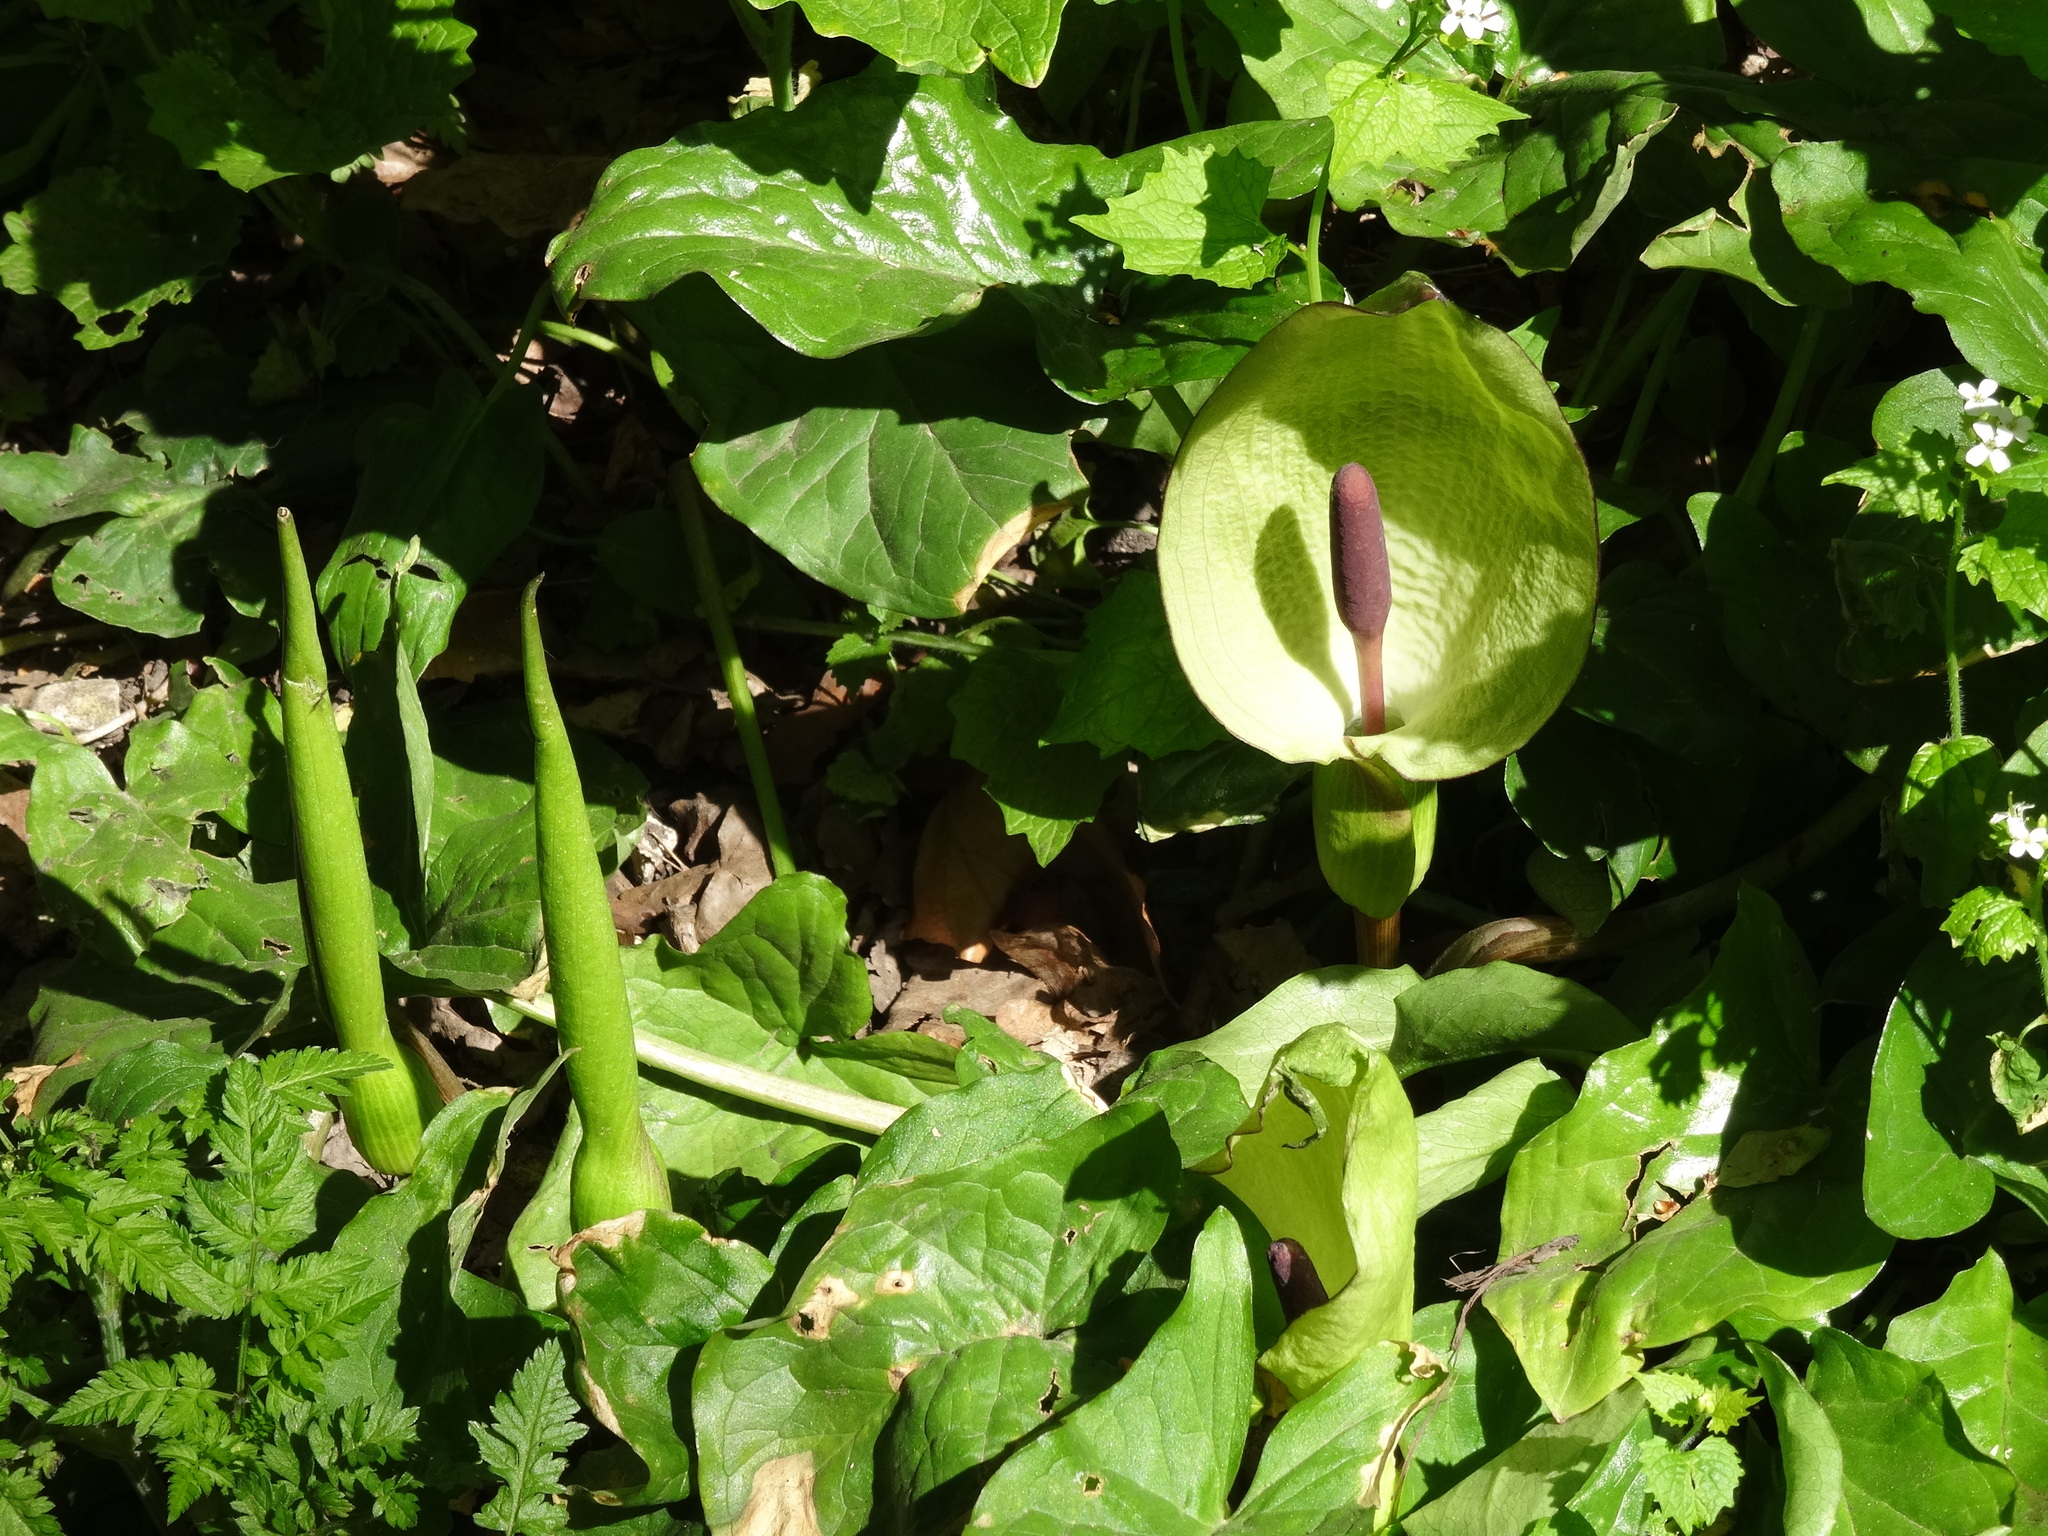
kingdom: Plantae
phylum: Tracheophyta
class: Liliopsida
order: Alismatales
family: Araceae
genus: Arum
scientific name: Arum maculatum
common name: Lords-and-ladies
